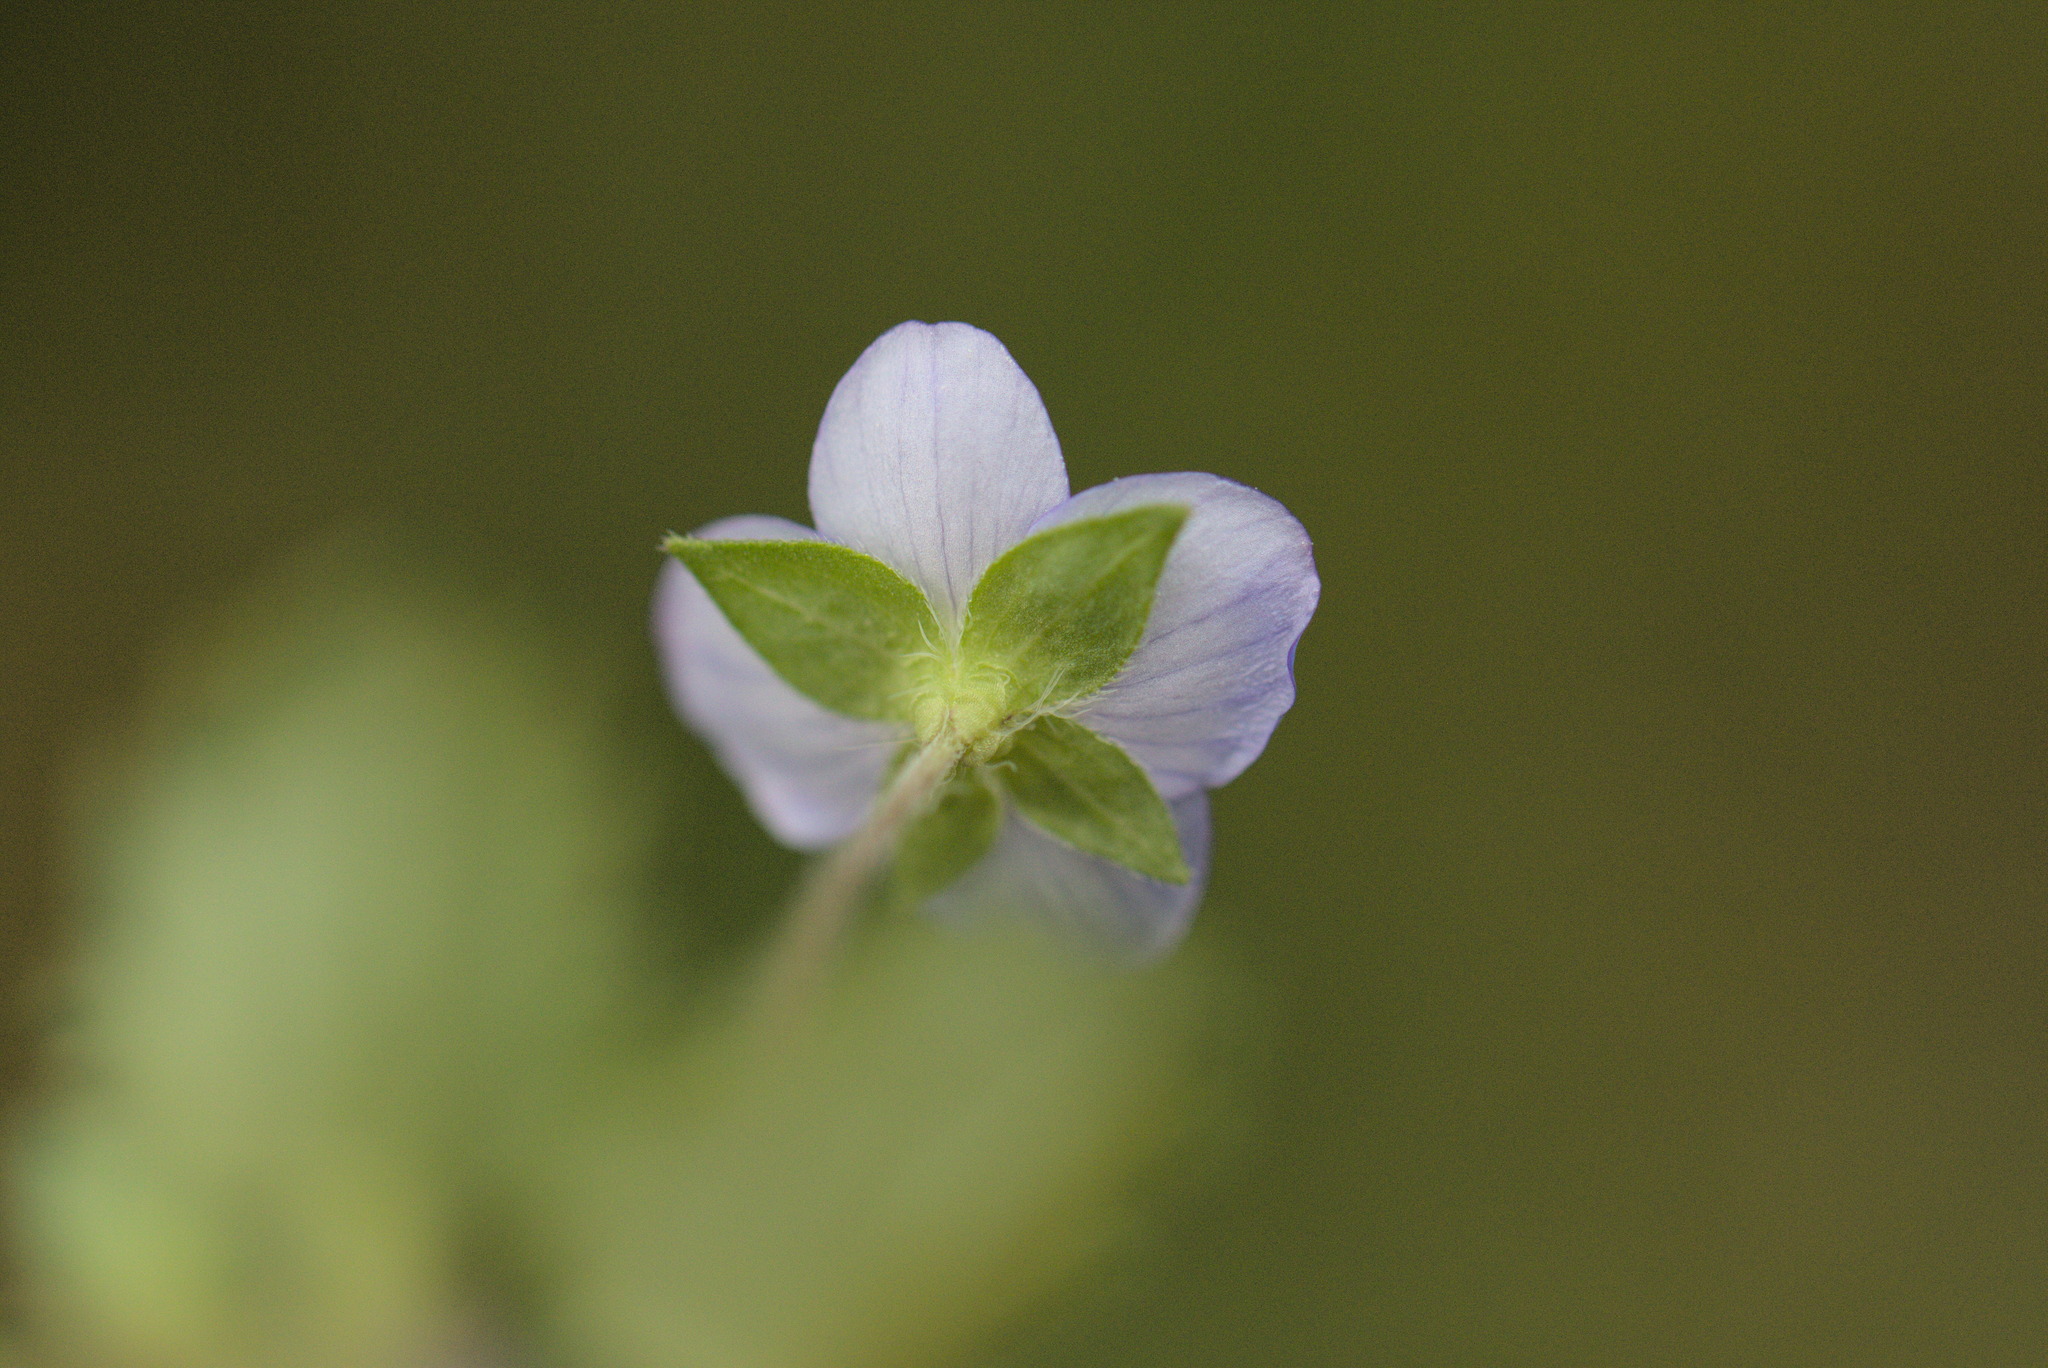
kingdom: Plantae
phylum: Tracheophyta
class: Magnoliopsida
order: Lamiales
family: Plantaginaceae
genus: Veronica
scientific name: Veronica persica
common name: Common field-speedwell
